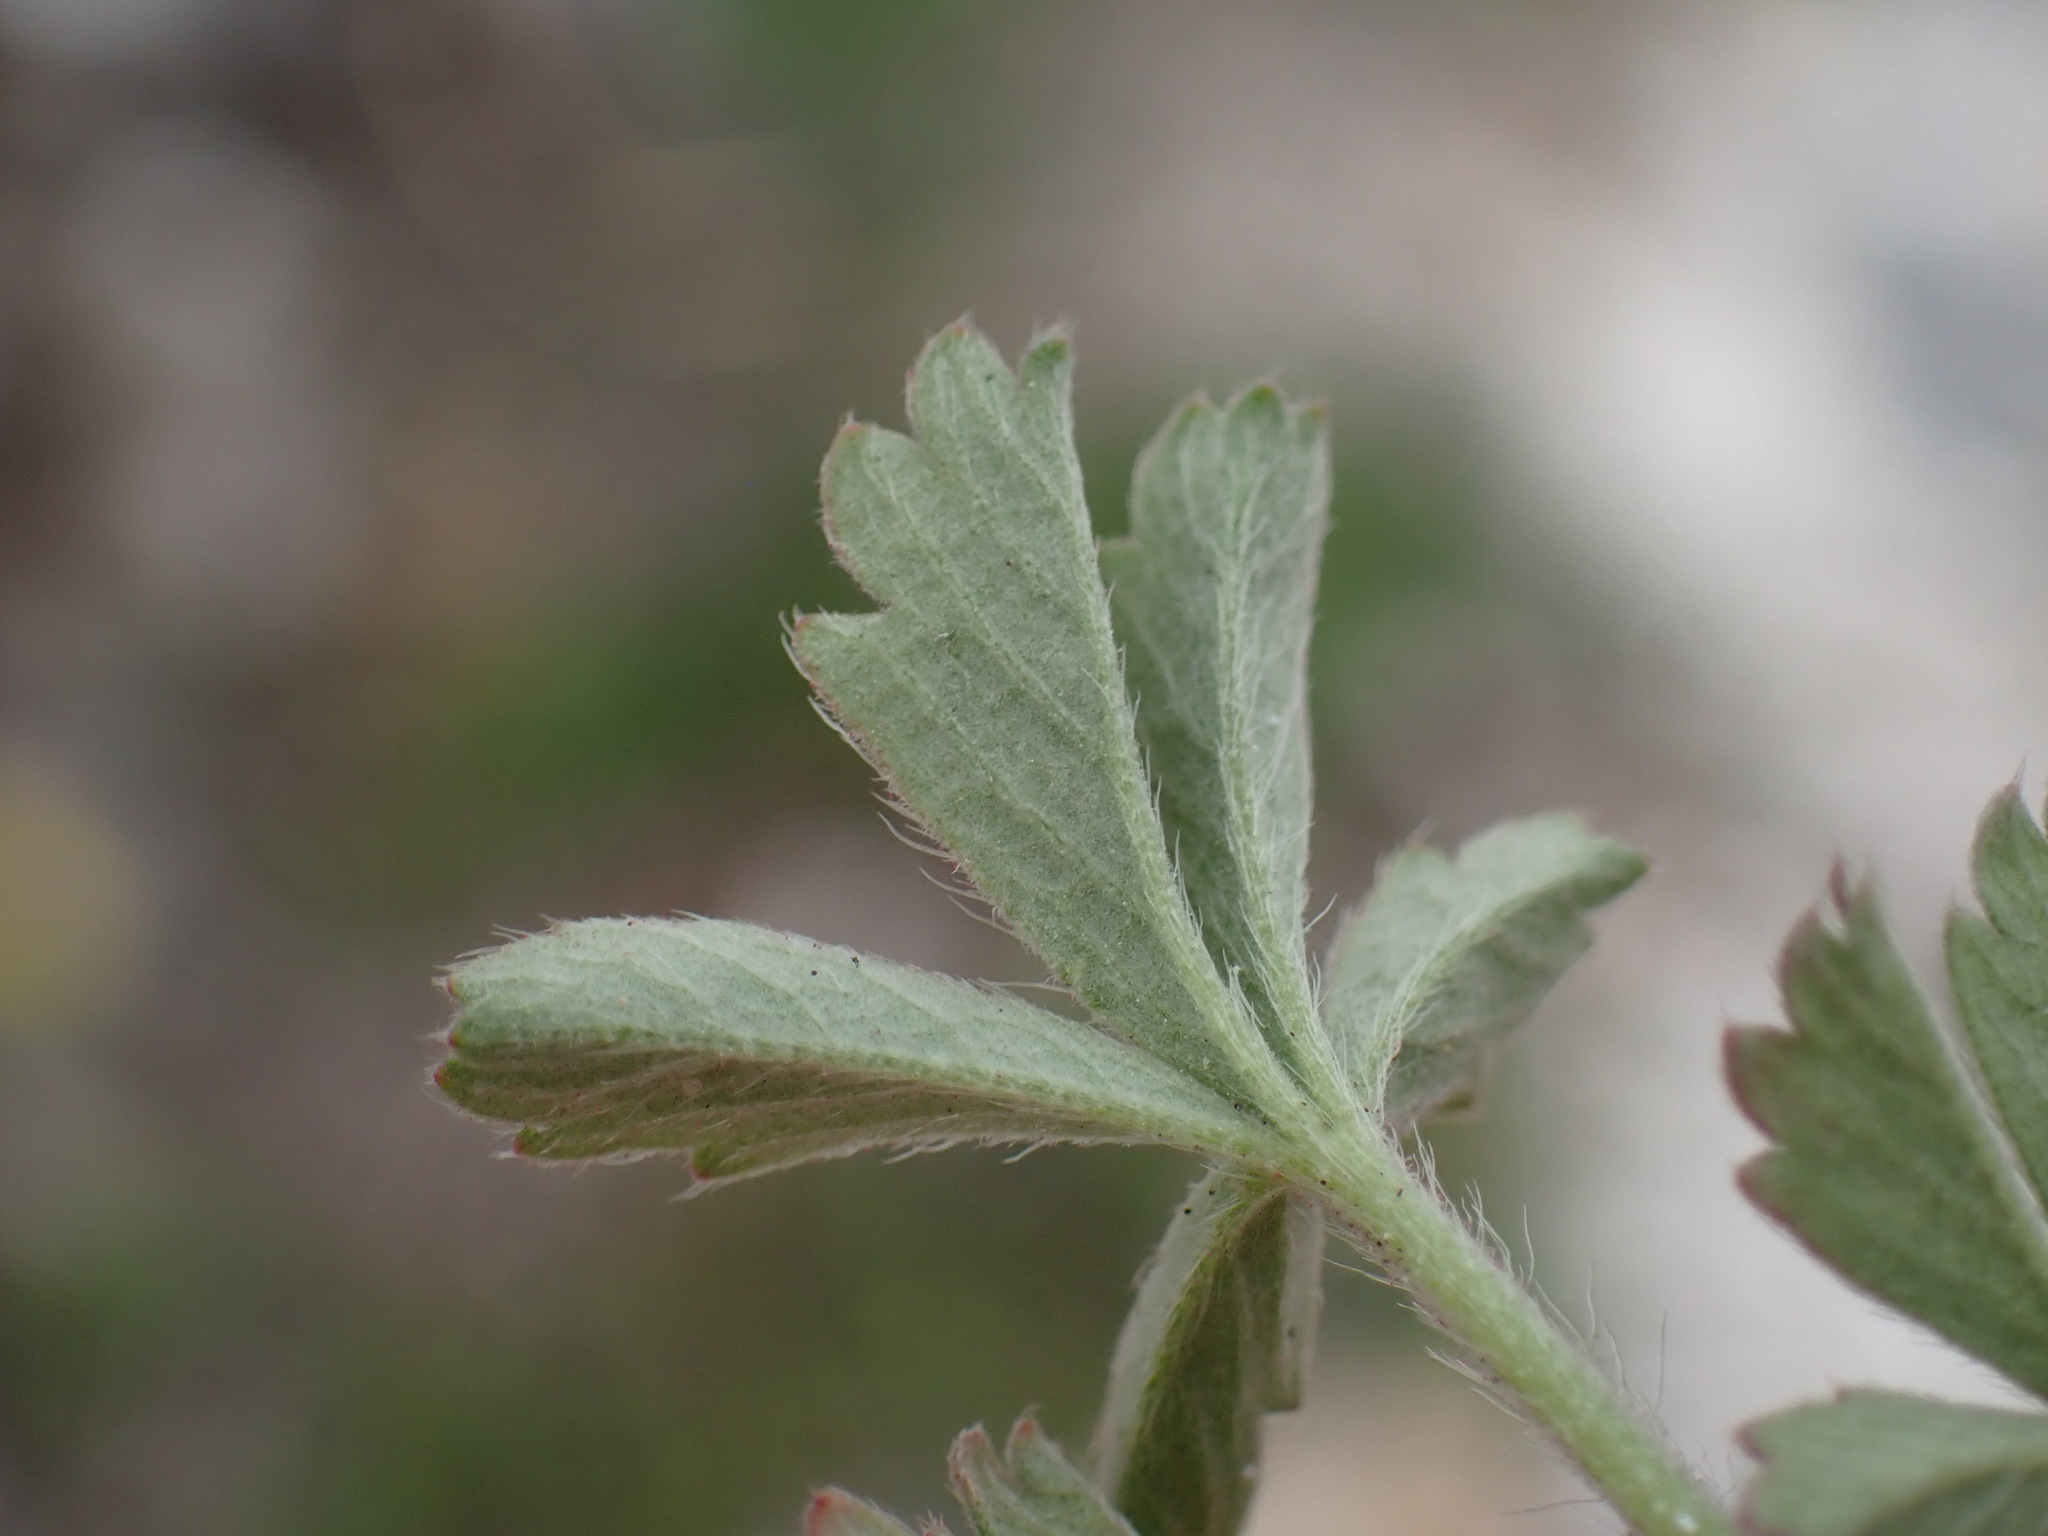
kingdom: Plantae
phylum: Tracheophyta
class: Magnoliopsida
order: Rosales
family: Rosaceae
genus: Potentilla
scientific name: Potentilla incana
